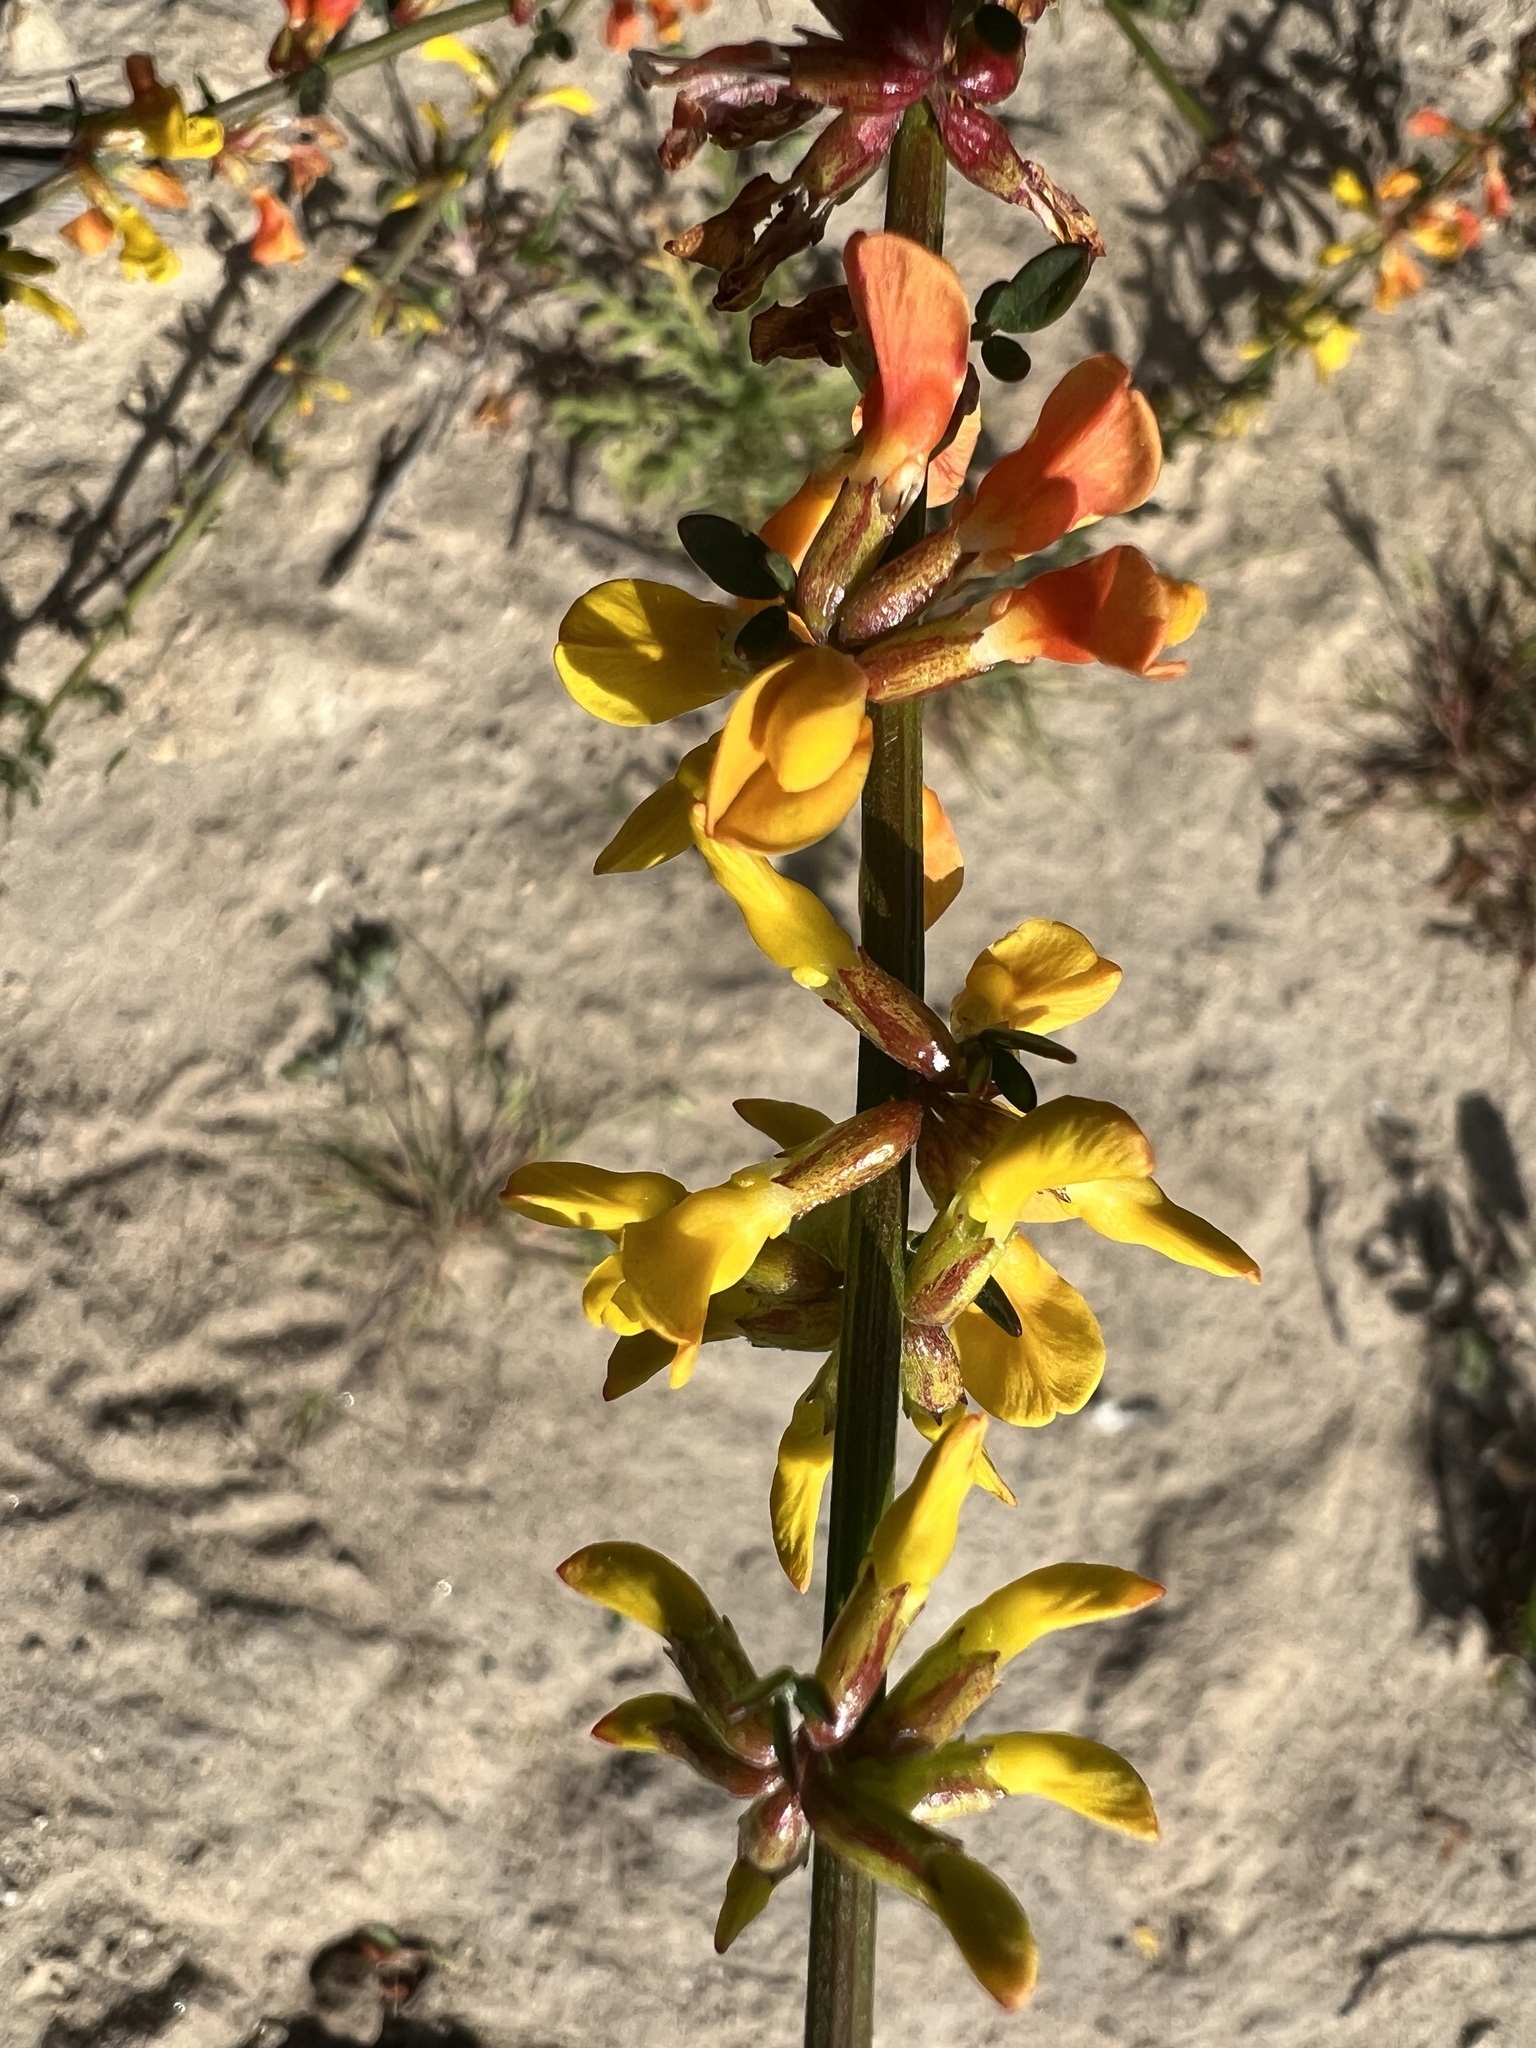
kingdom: Plantae
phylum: Tracheophyta
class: Magnoliopsida
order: Fabales
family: Fabaceae
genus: Acmispon
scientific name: Acmispon glaber
